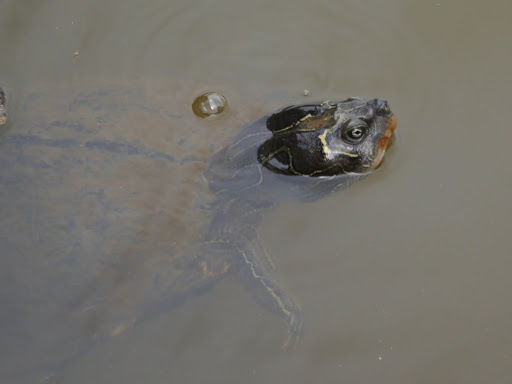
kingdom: Animalia
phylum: Chordata
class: Testudines
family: Emydidae
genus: Graptemys
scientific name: Graptemys pseudogeographica
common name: False map turtle
